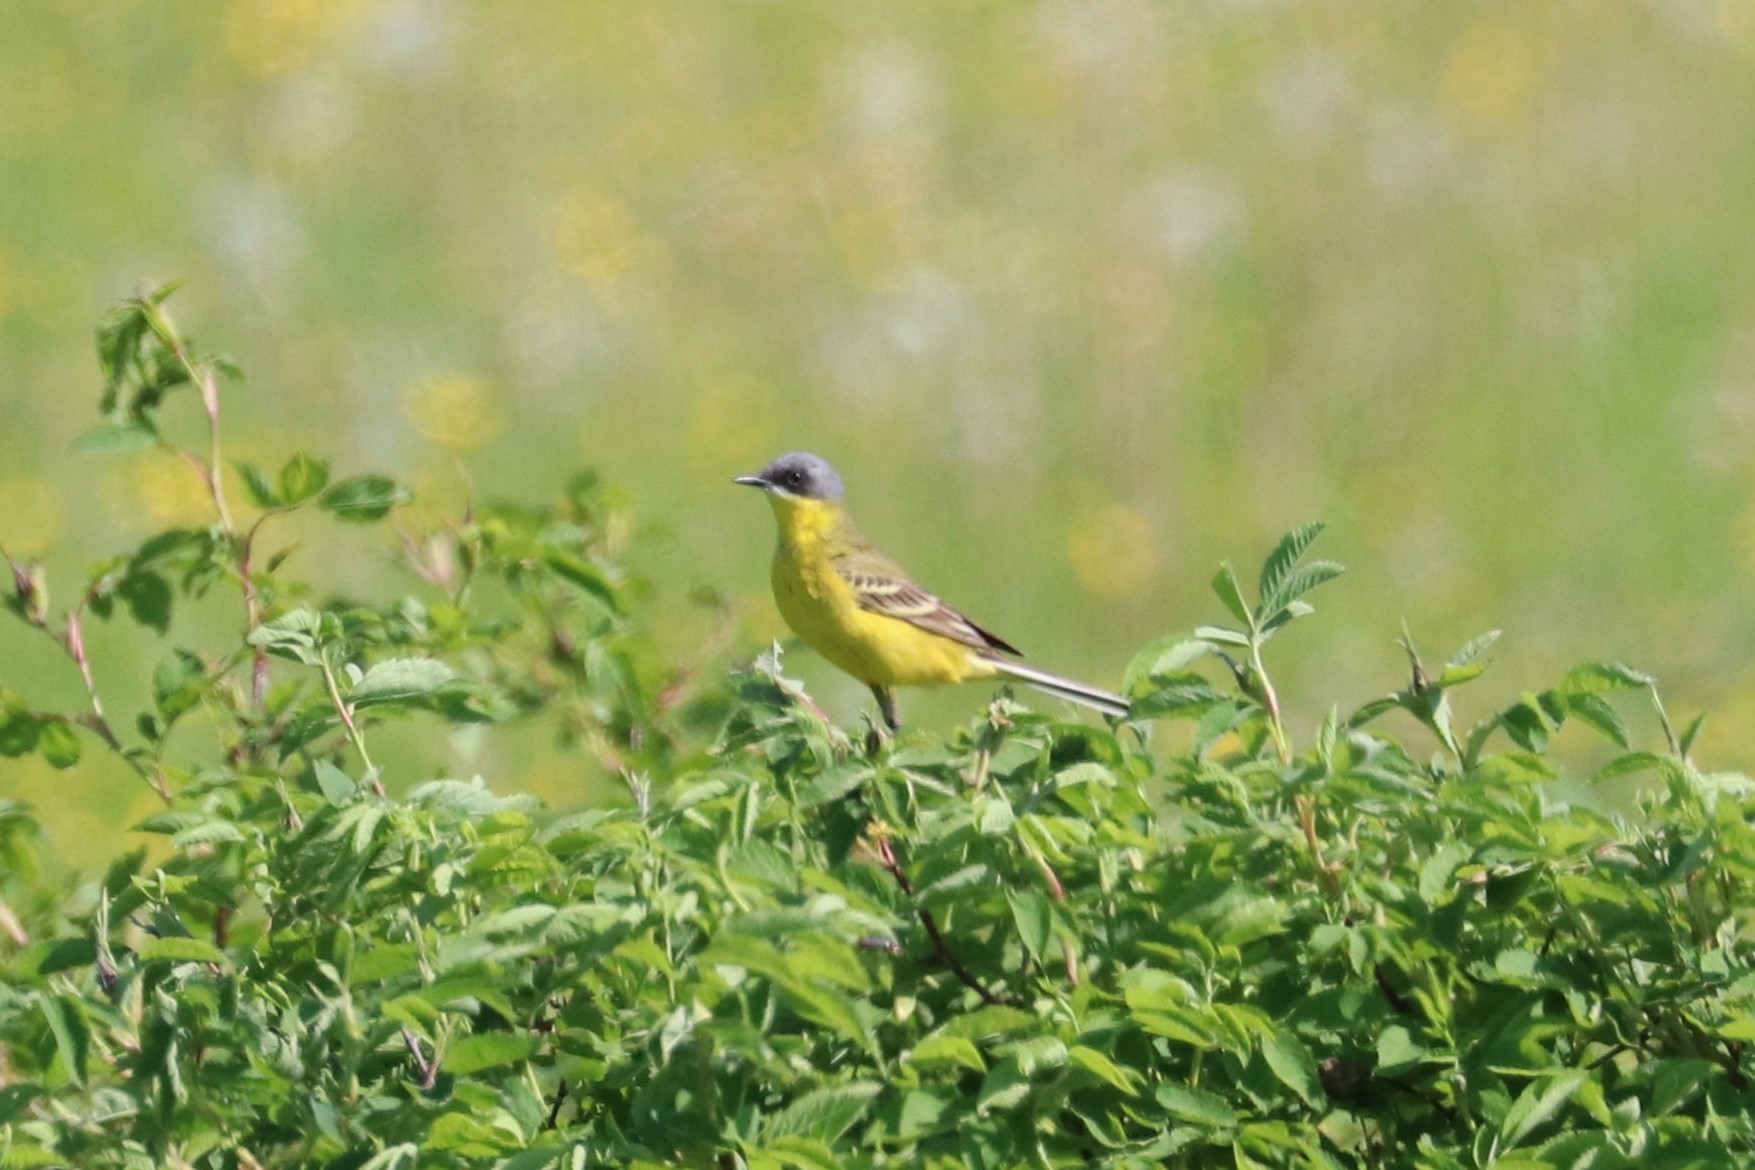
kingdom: Animalia
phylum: Chordata
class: Aves
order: Passeriformes
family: Motacillidae
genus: Motacilla
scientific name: Motacilla flava
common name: Western yellow wagtail
